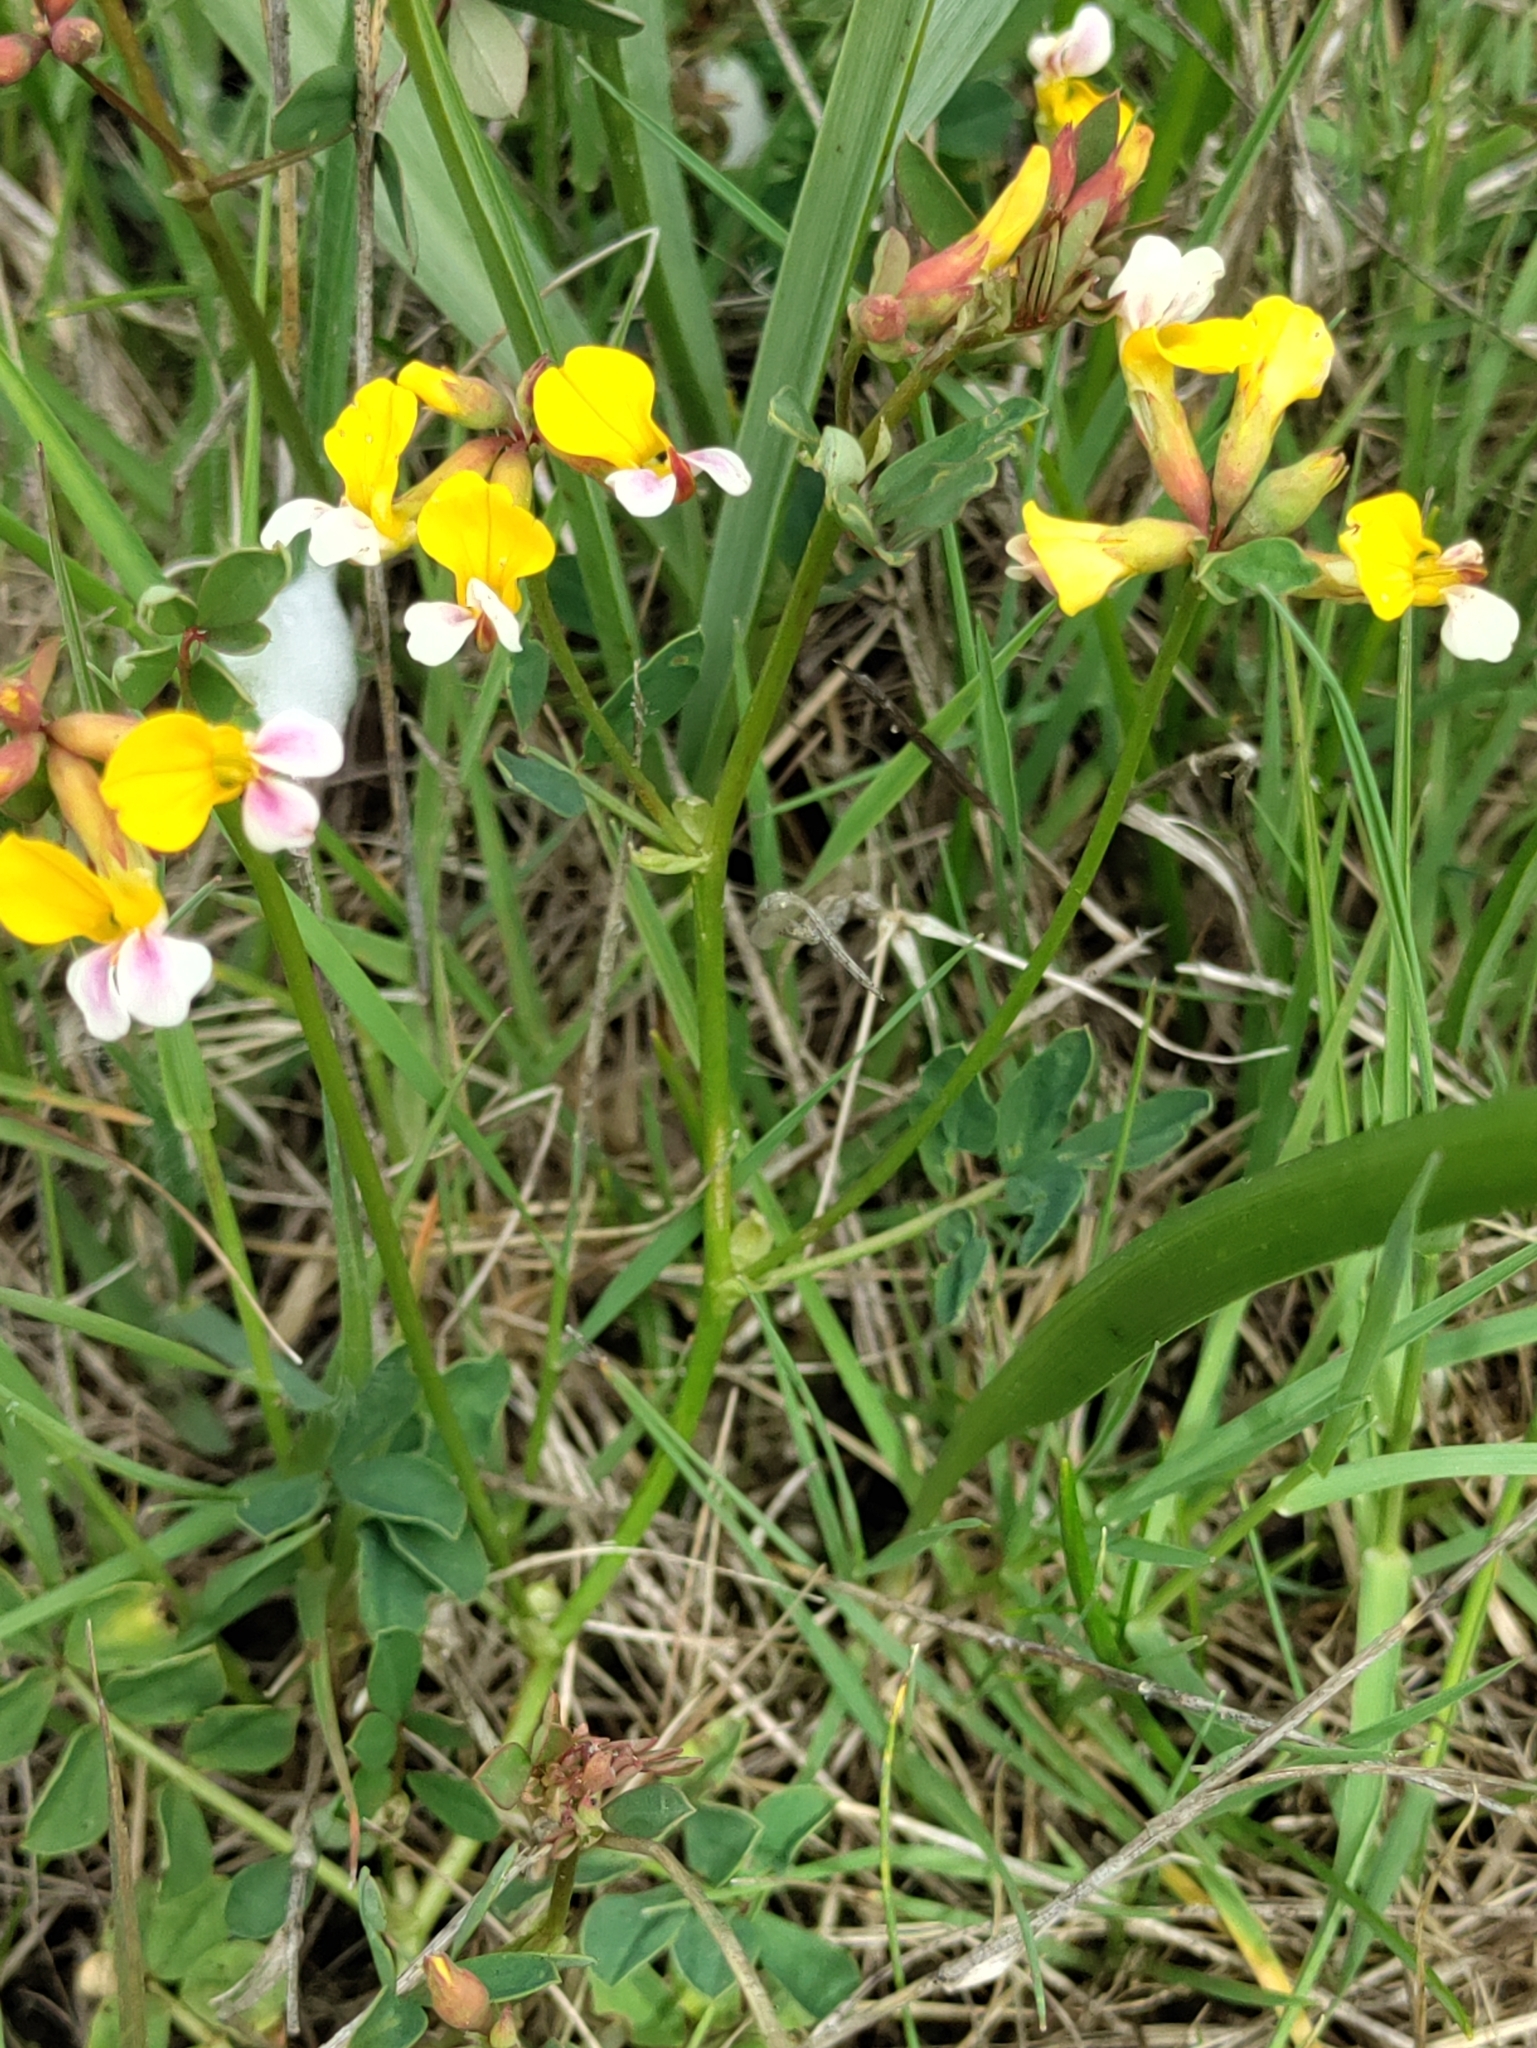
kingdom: Plantae
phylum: Tracheophyta
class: Magnoliopsida
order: Fabales
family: Fabaceae
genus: Hosackia
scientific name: Hosackia gracilis
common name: Seaside bird's-foot lotus
